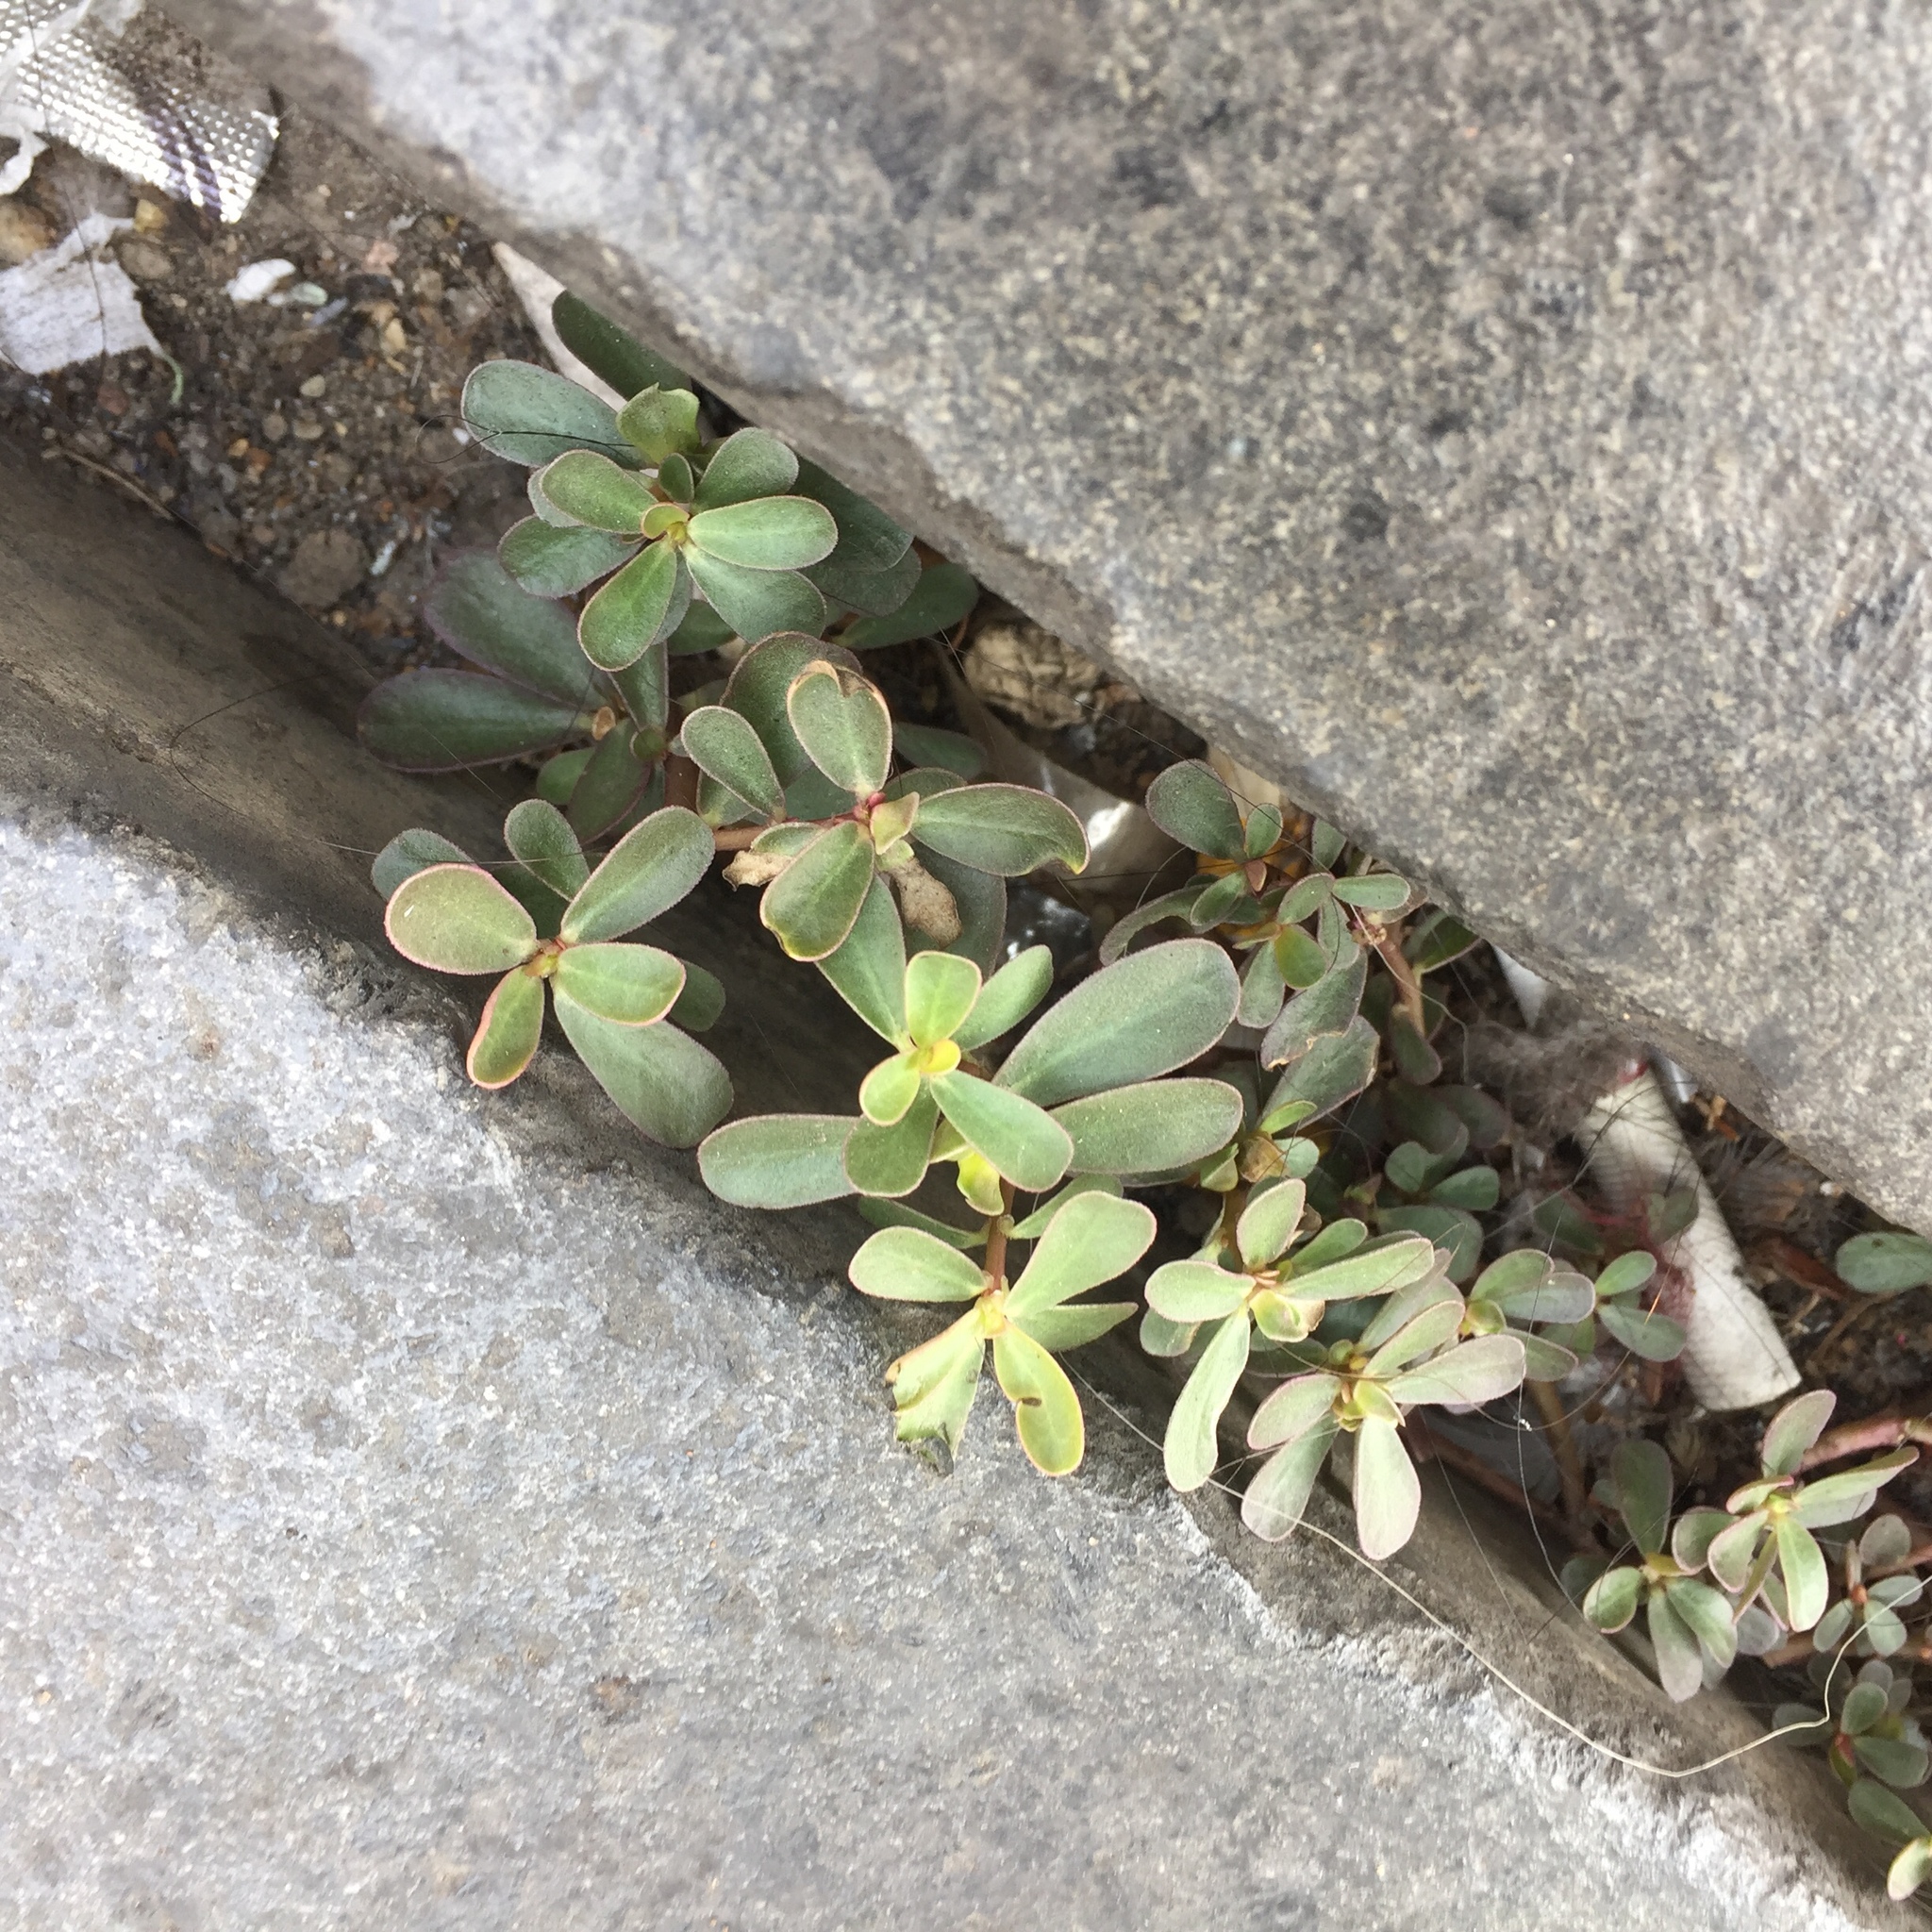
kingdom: Plantae
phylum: Tracheophyta
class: Magnoliopsida
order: Caryophyllales
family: Portulacaceae
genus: Portulaca
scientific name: Portulaca oleracea
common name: Common purslane
